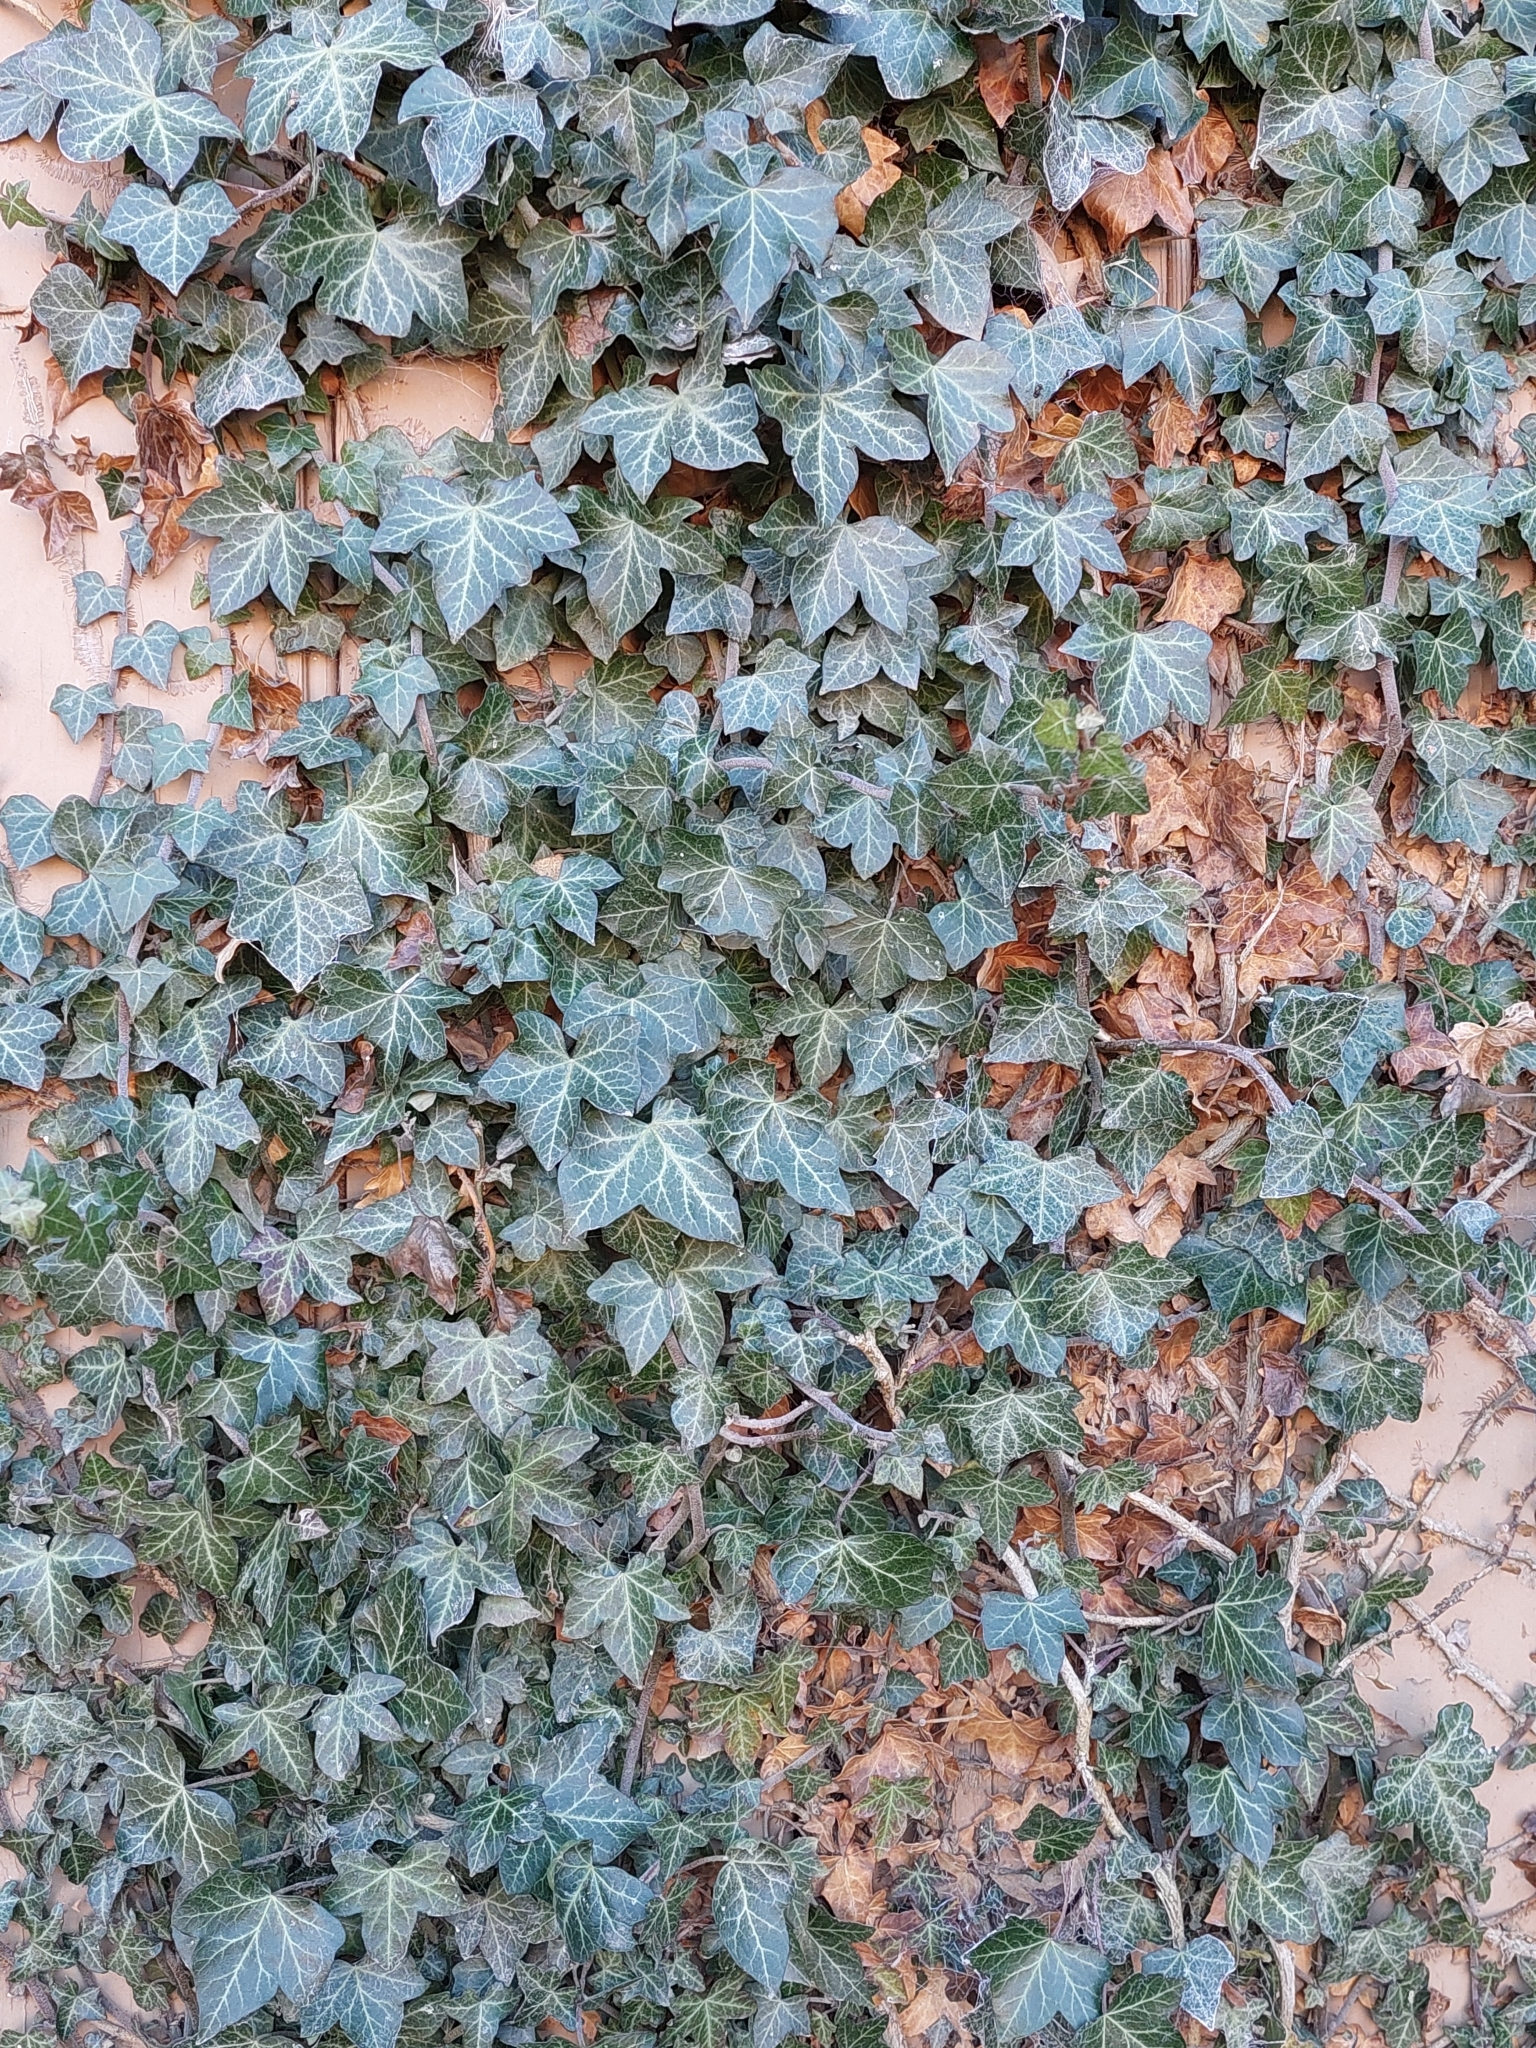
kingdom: Plantae
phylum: Tracheophyta
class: Magnoliopsida
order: Apiales
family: Araliaceae
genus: Hedera
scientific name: Hedera helix
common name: Ivy
